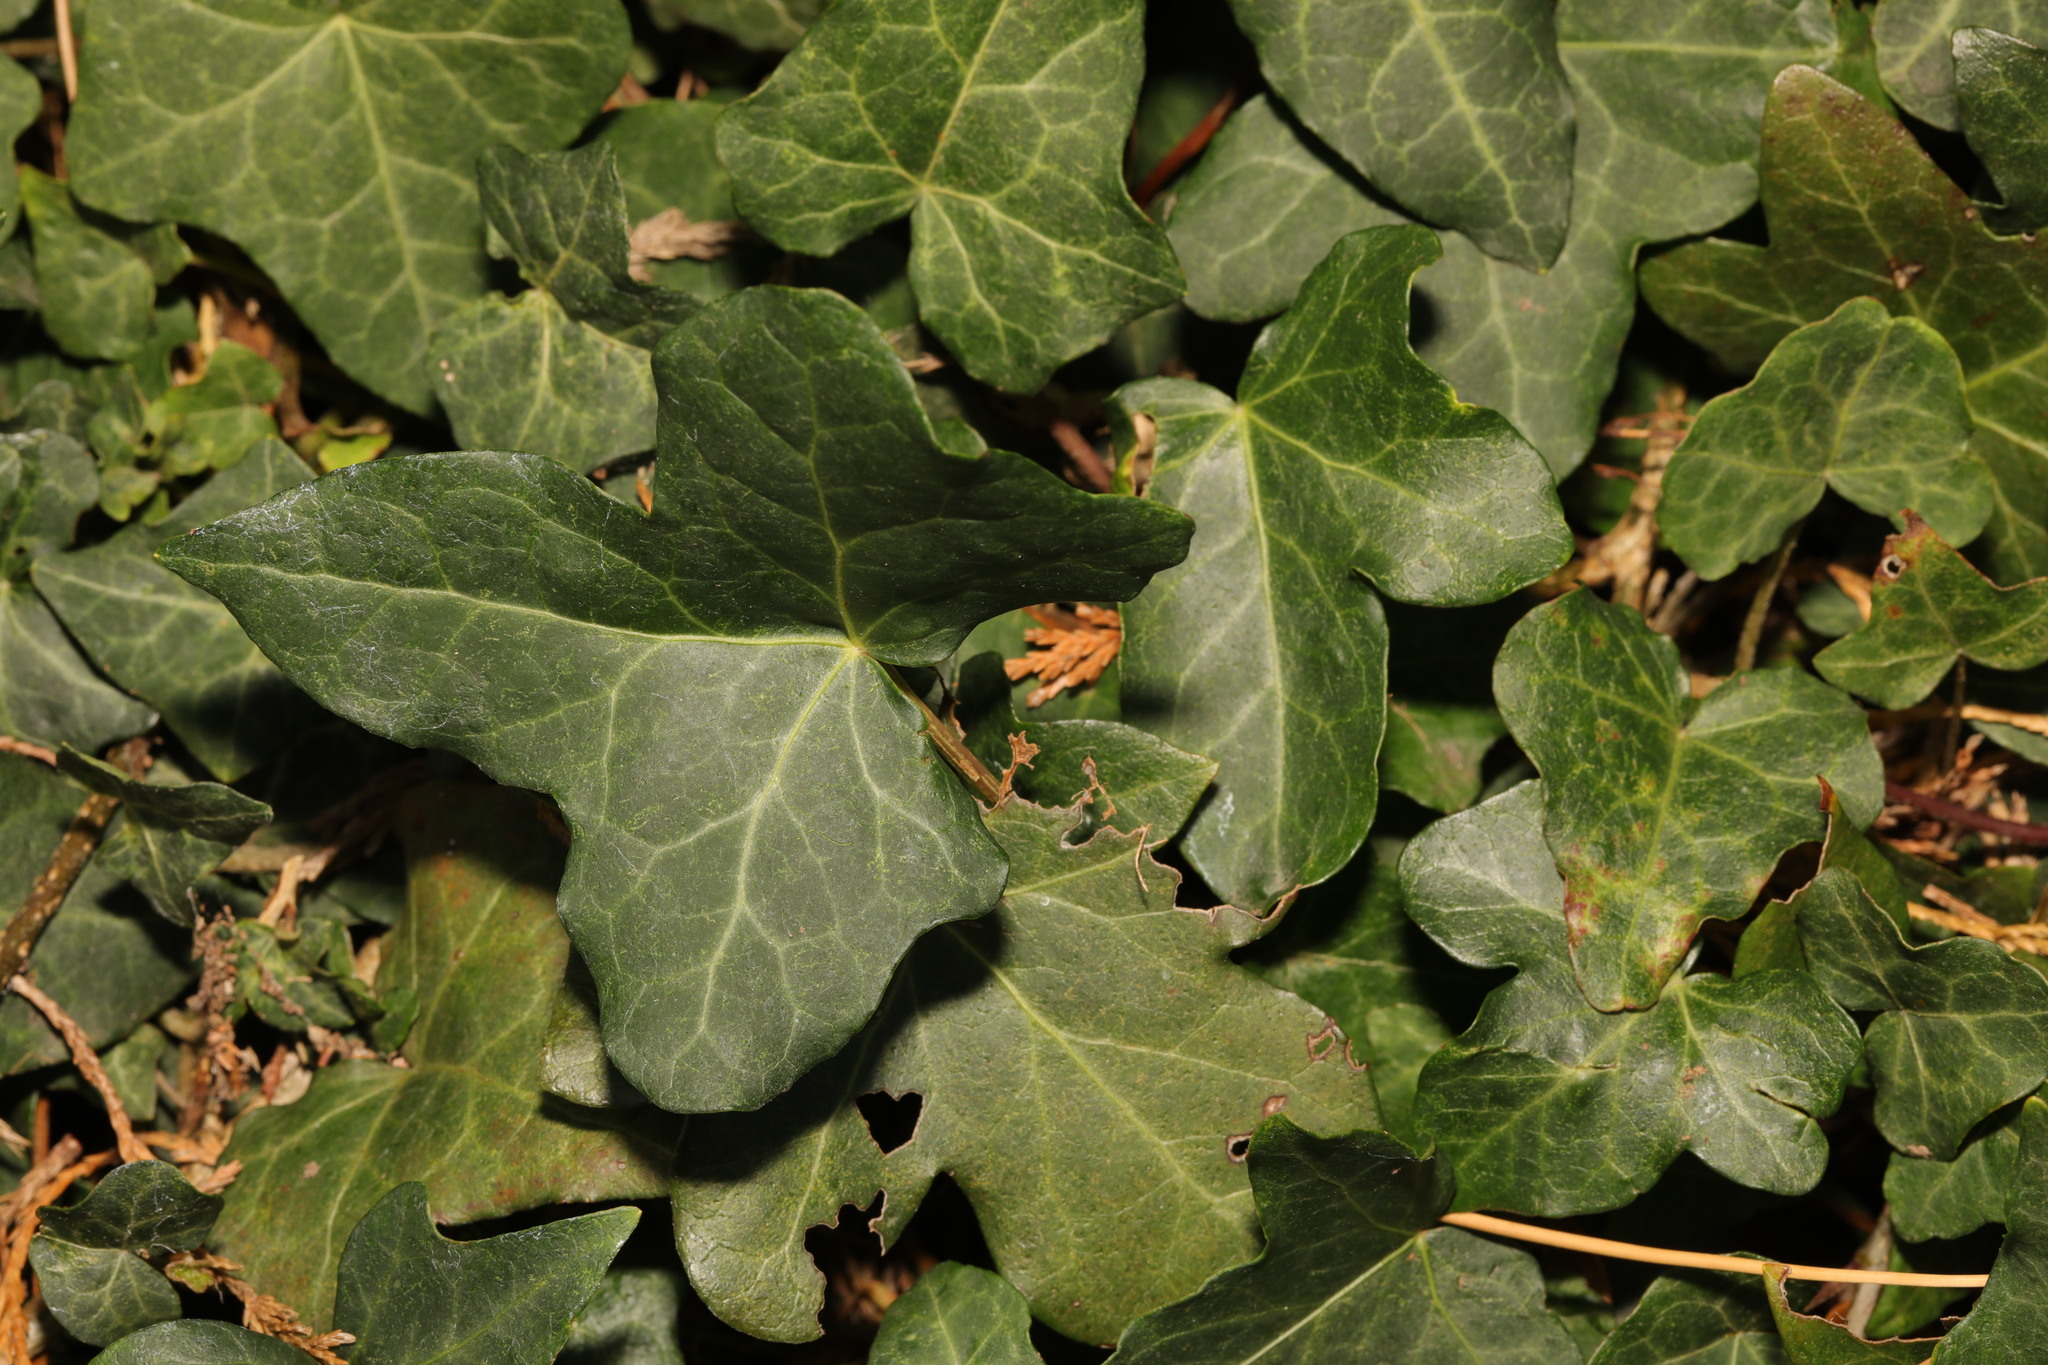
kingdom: Plantae
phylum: Tracheophyta
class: Magnoliopsida
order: Apiales
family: Araliaceae
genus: Hedera
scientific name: Hedera helix
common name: Ivy
